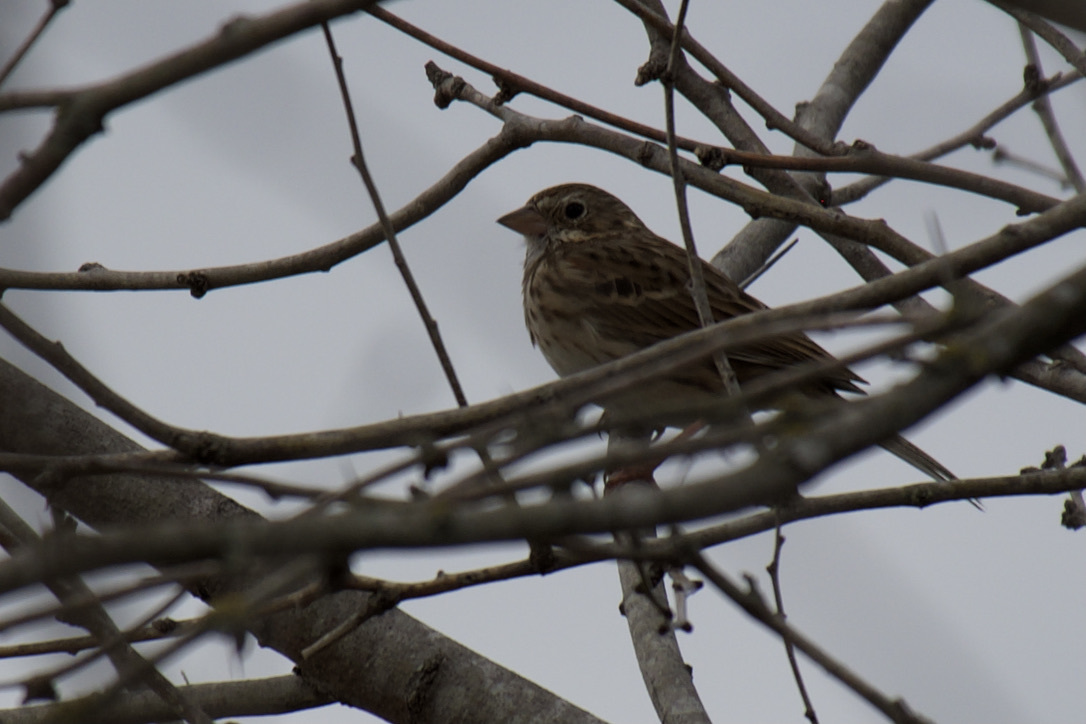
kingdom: Animalia
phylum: Chordata
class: Aves
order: Passeriformes
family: Passerellidae
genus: Pooecetes
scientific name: Pooecetes gramineus
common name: Vesper sparrow
